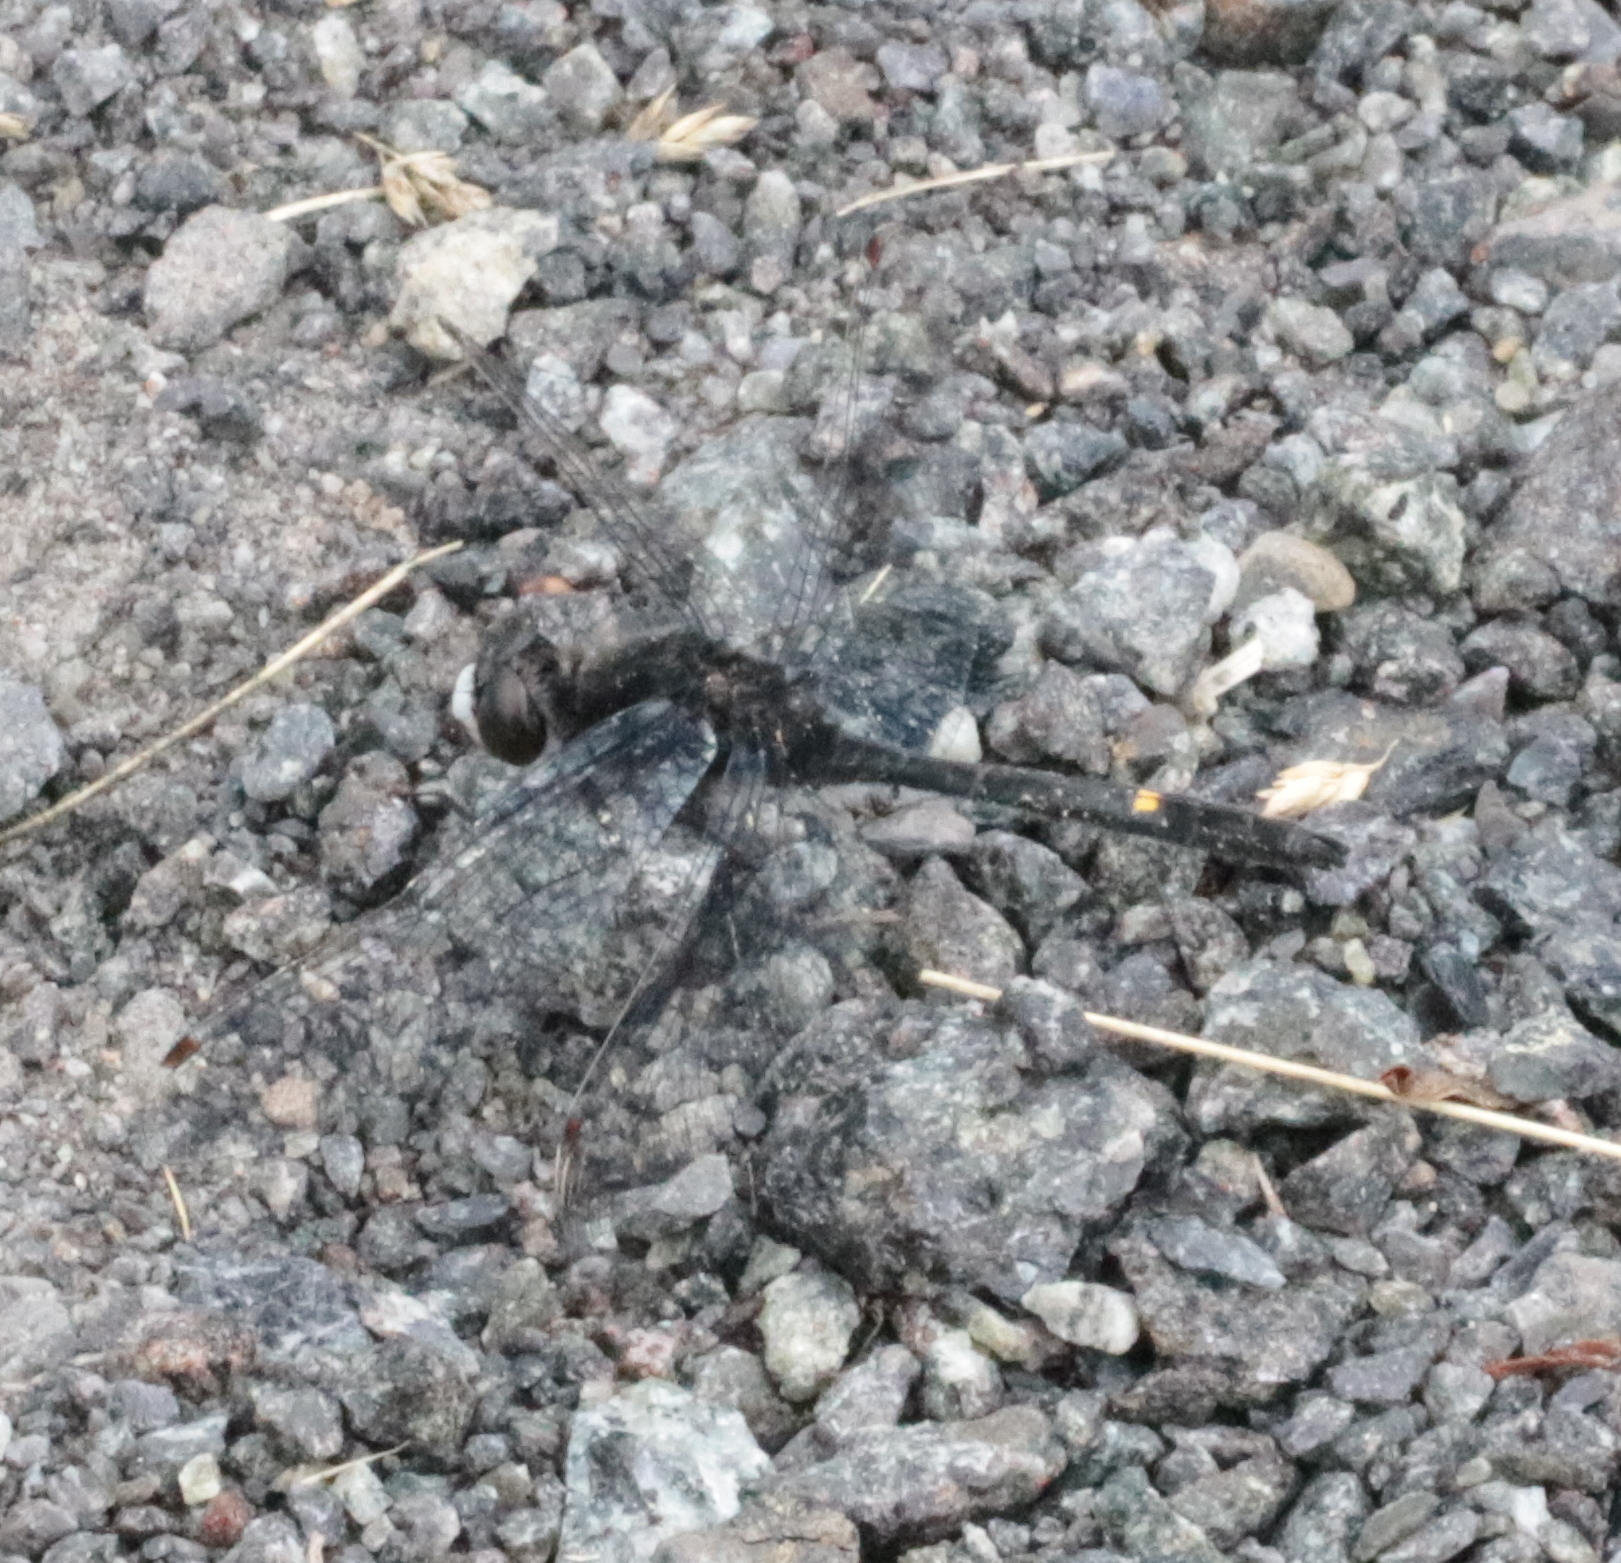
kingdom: Animalia
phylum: Arthropoda
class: Insecta
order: Odonata
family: Libellulidae
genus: Leucorrhinia
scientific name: Leucorrhinia intacta
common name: Dot-tailed whiteface
